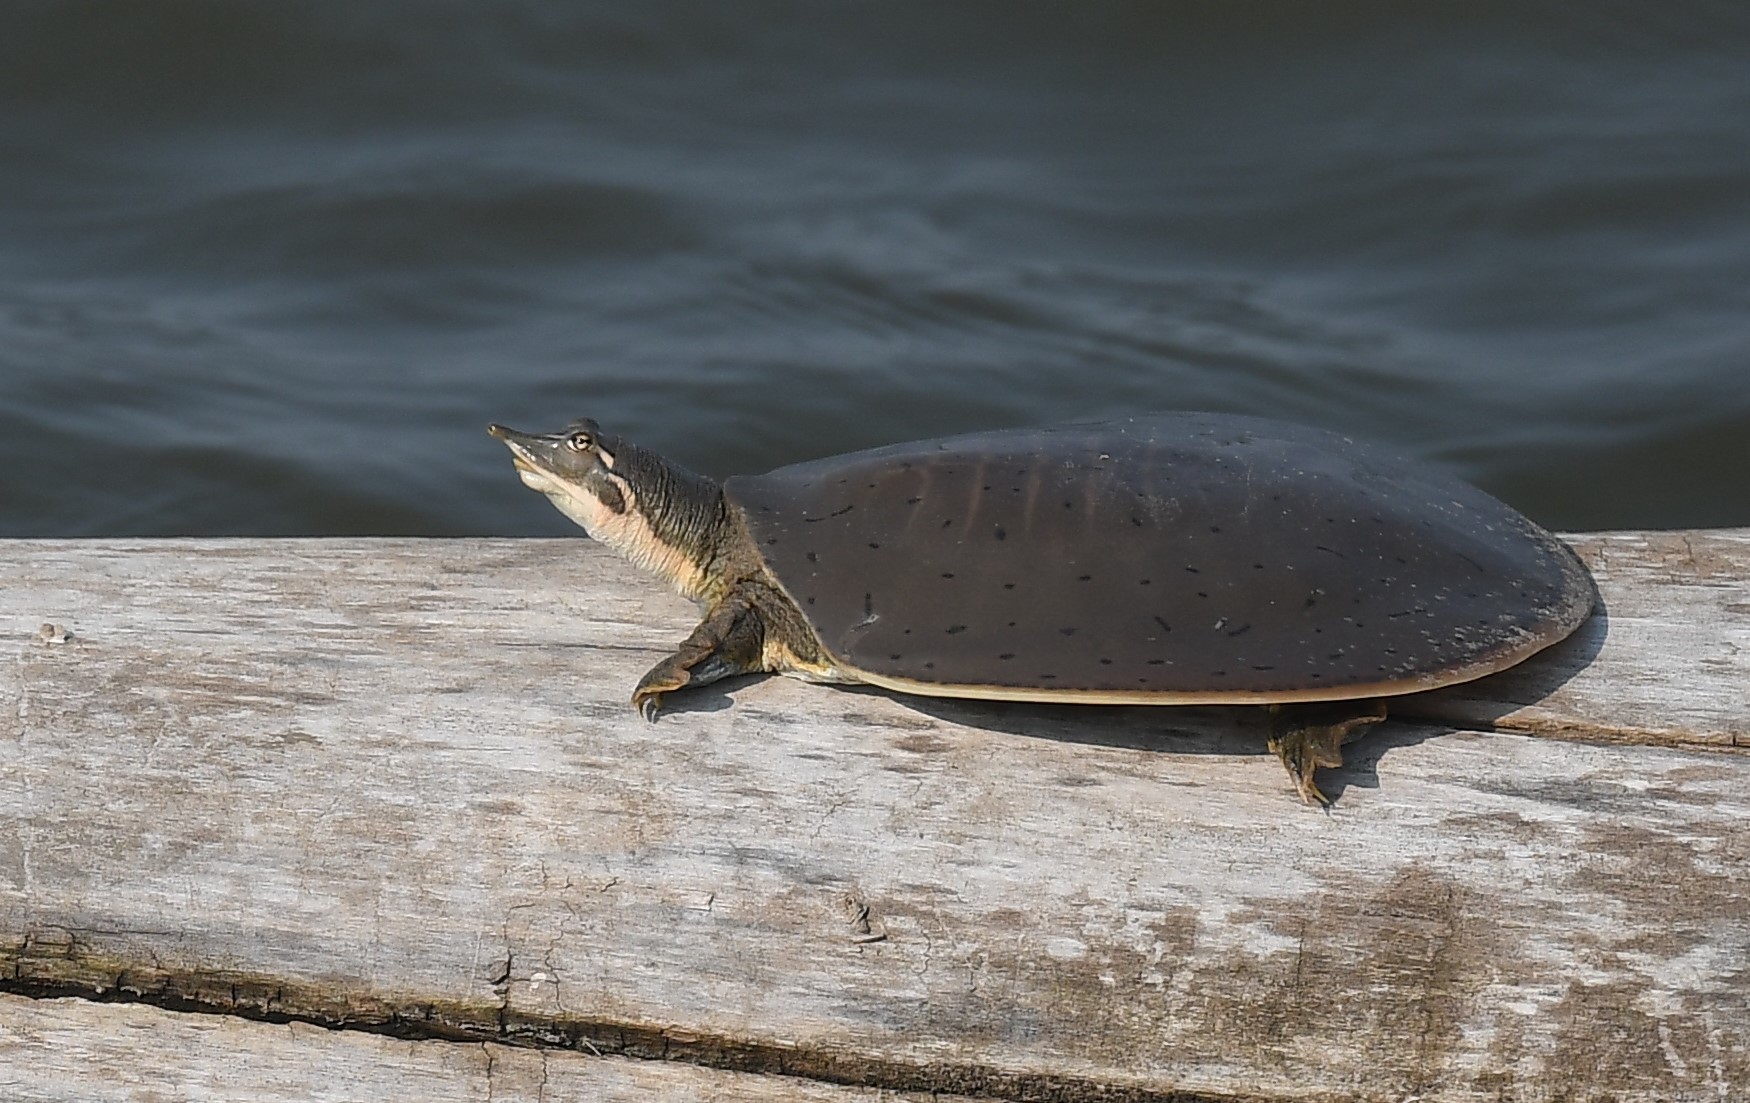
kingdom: Animalia
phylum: Chordata
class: Testudines
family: Trionychidae
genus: Apalone
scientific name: Apalone mutica
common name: Smooth softshell turtle
